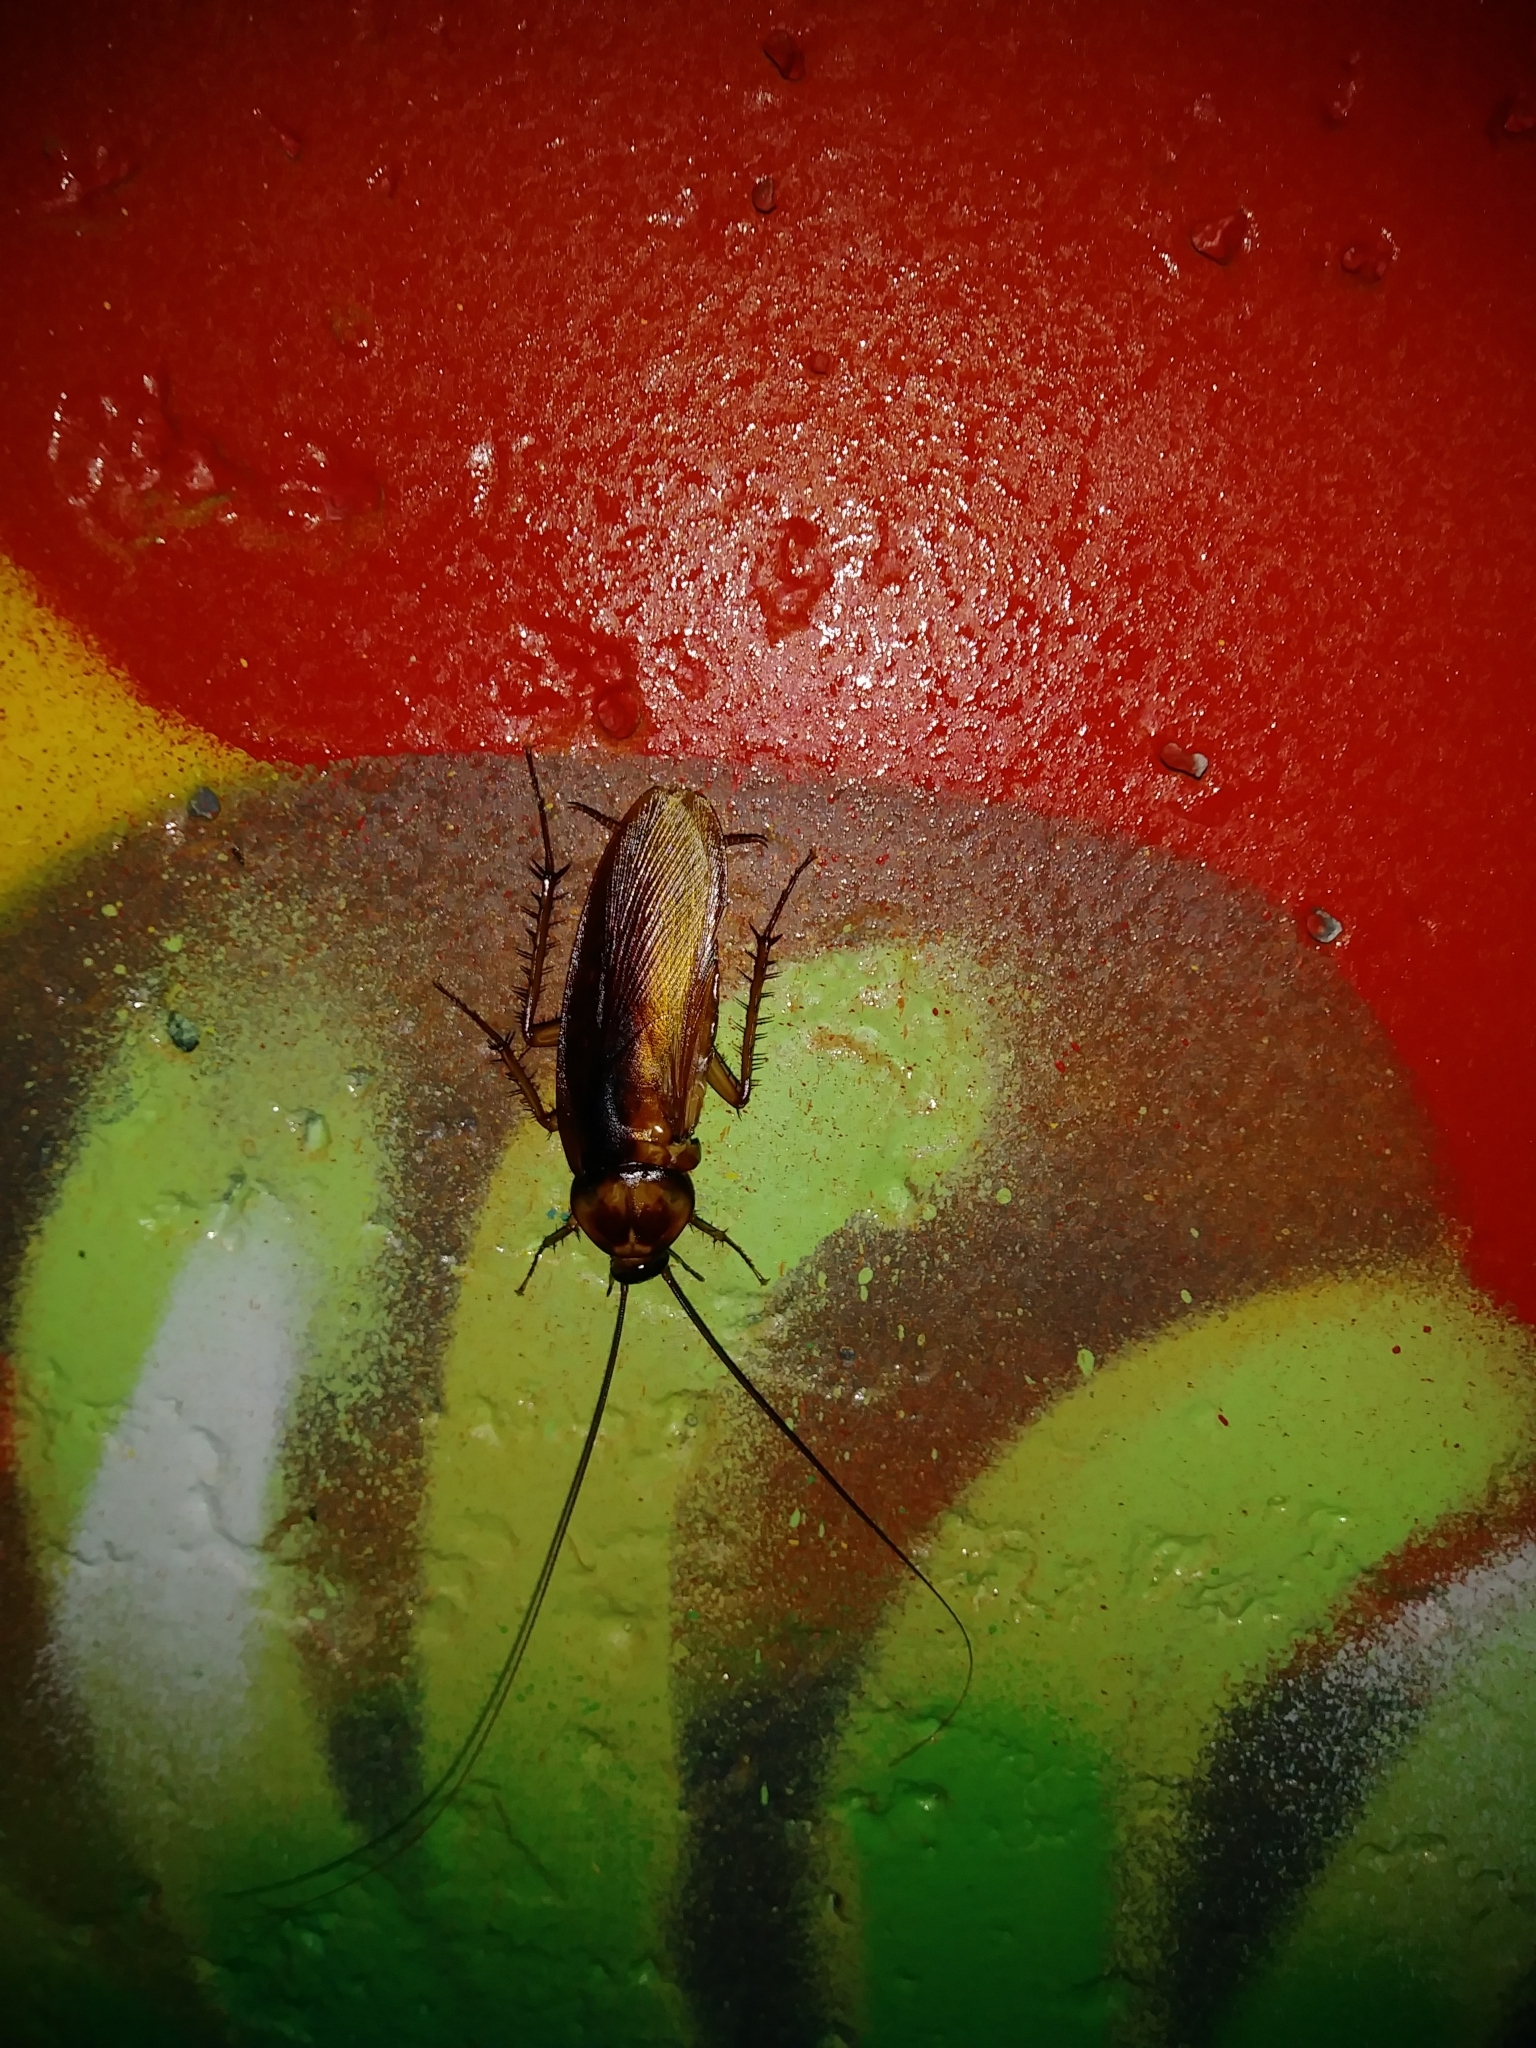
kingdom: Animalia
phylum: Arthropoda
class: Insecta
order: Blattodea
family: Blattidae
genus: Periplaneta
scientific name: Periplaneta americana
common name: American cockroach
